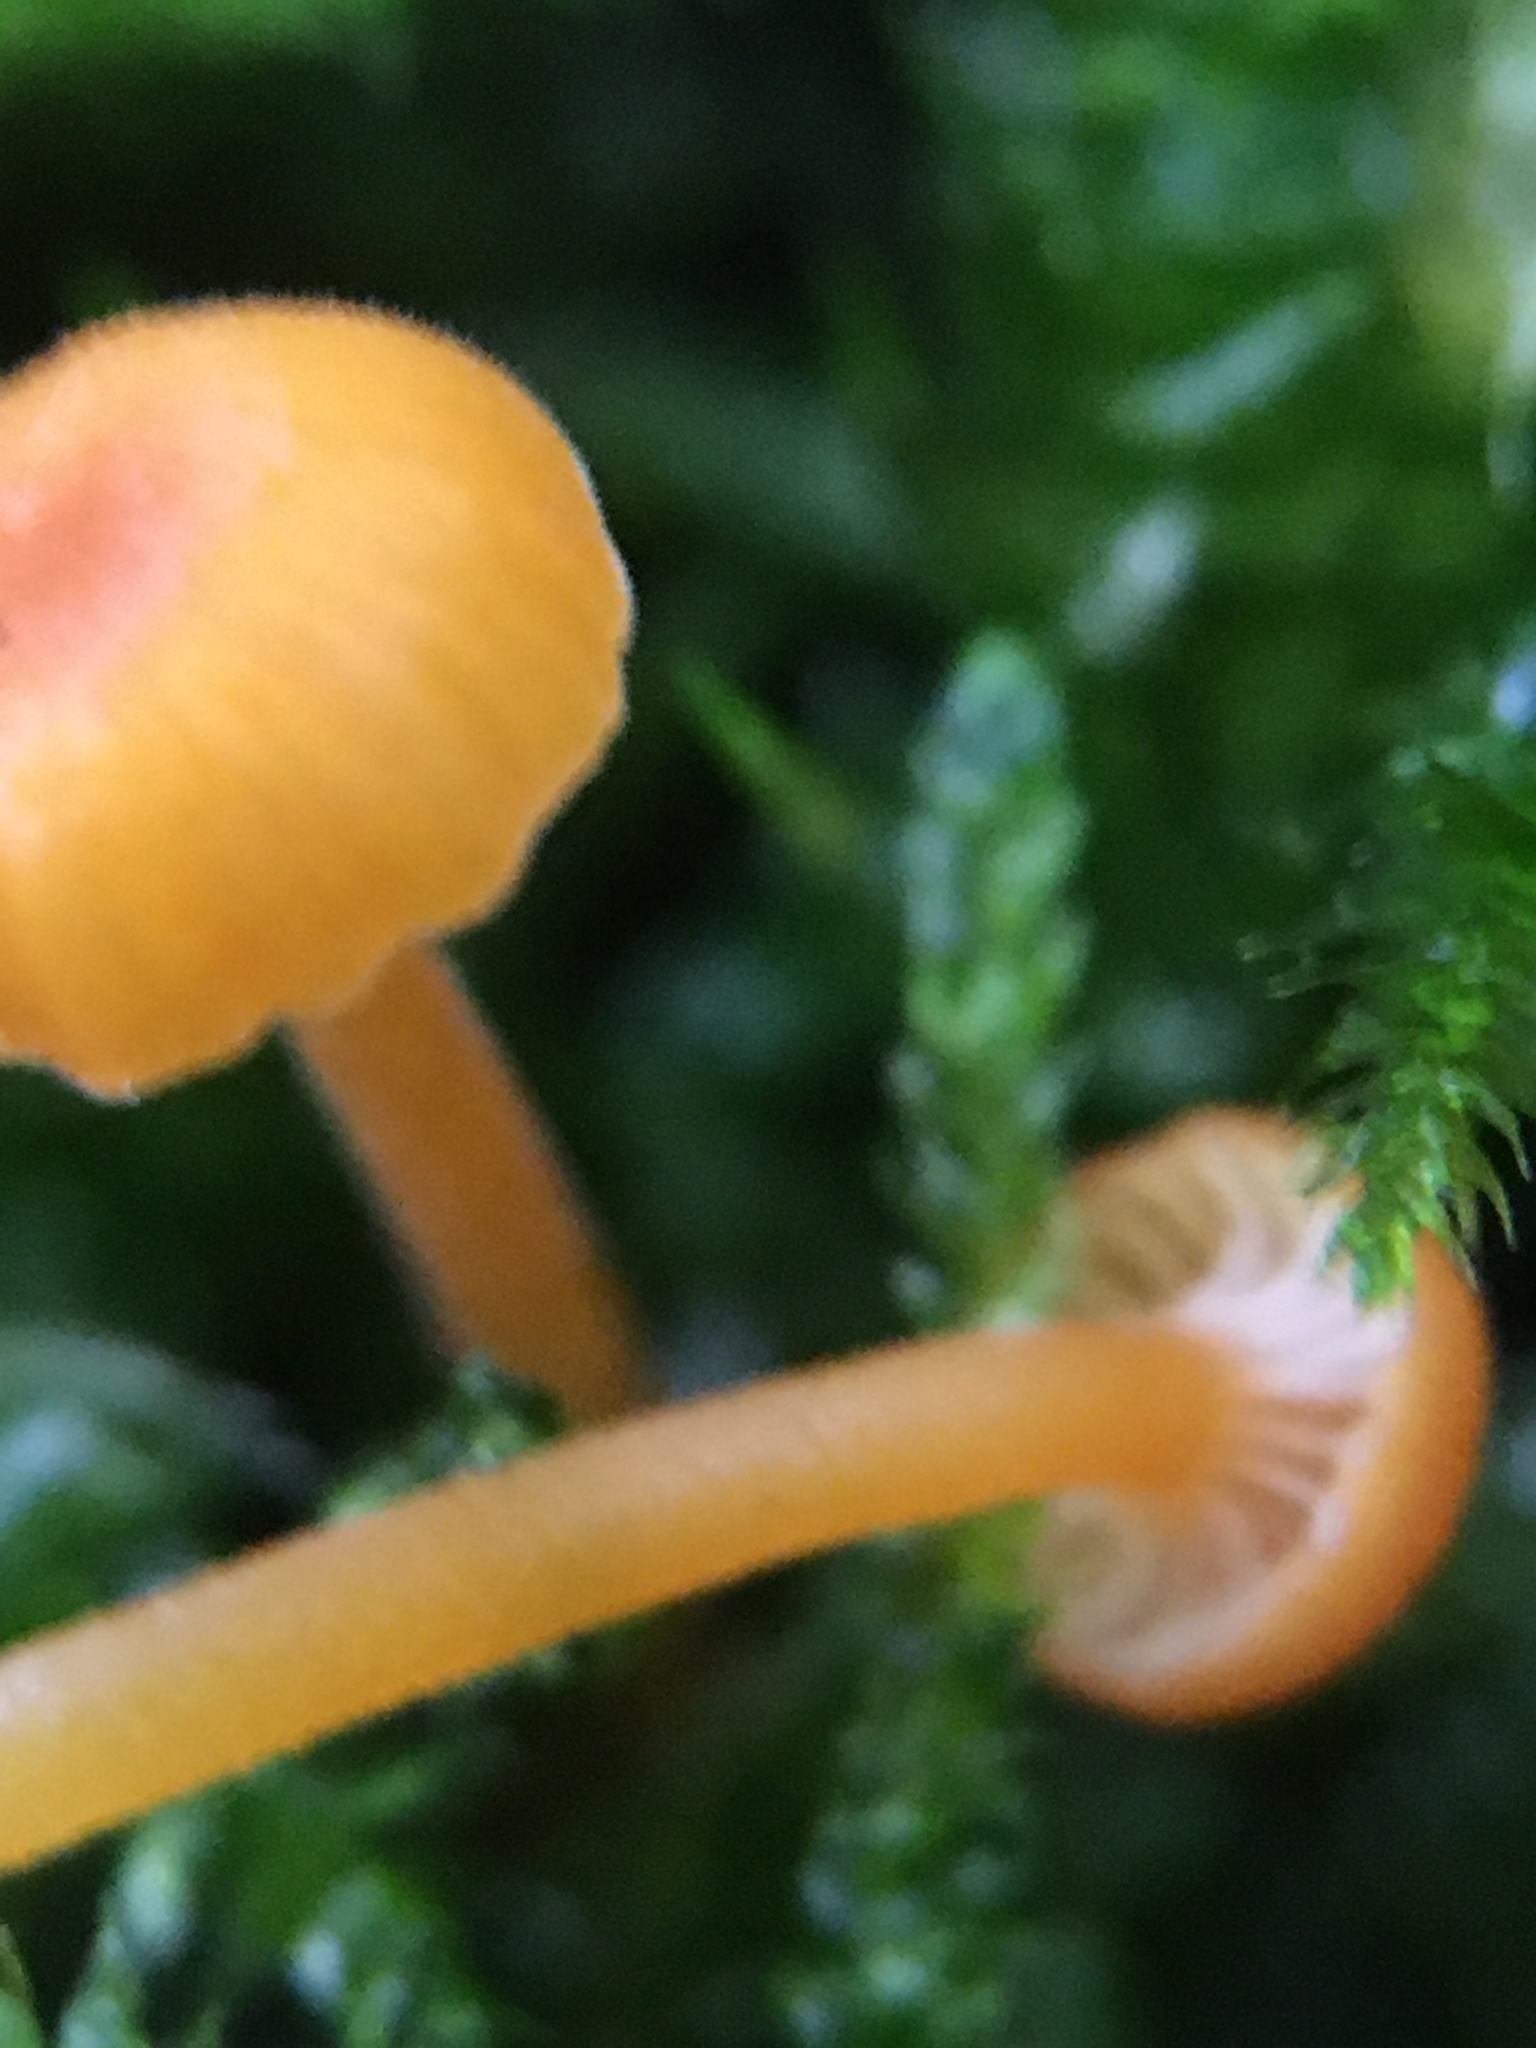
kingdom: Fungi
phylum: Basidiomycota
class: Agaricomycetes
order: Hymenochaetales
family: Rickenellaceae
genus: Rickenella
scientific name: Rickenella fibula
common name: Orange mosscap
